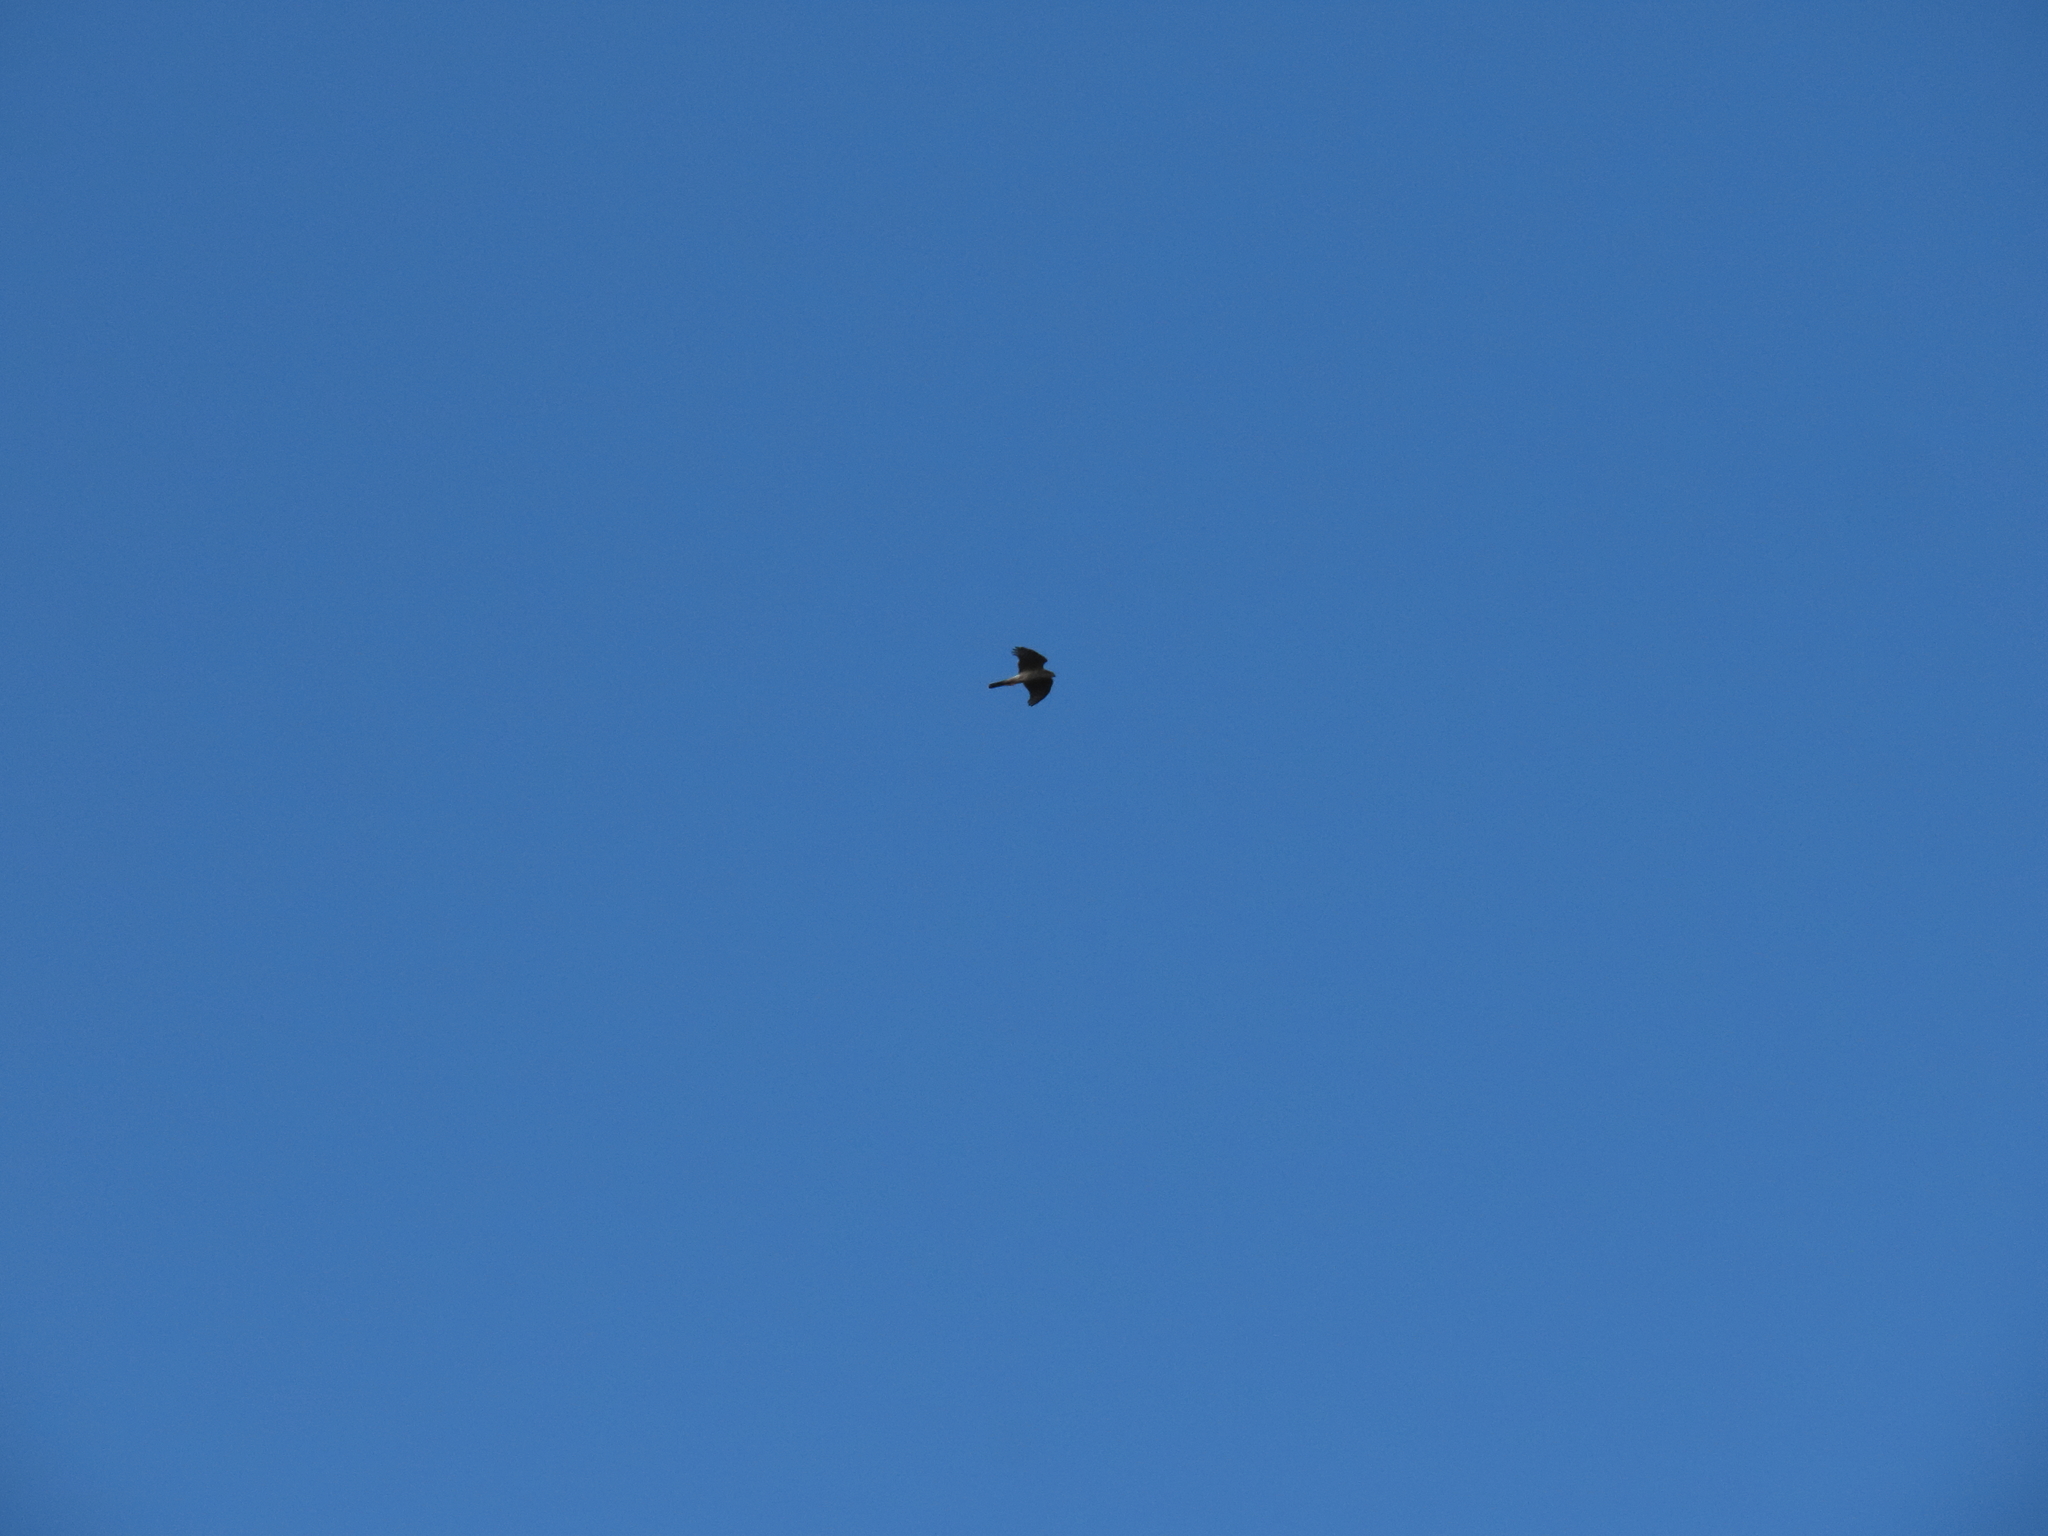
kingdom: Animalia
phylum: Chordata
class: Aves
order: Accipitriformes
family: Accipitridae
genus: Accipiter
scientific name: Accipiter nisus
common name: Eurasian sparrowhawk
